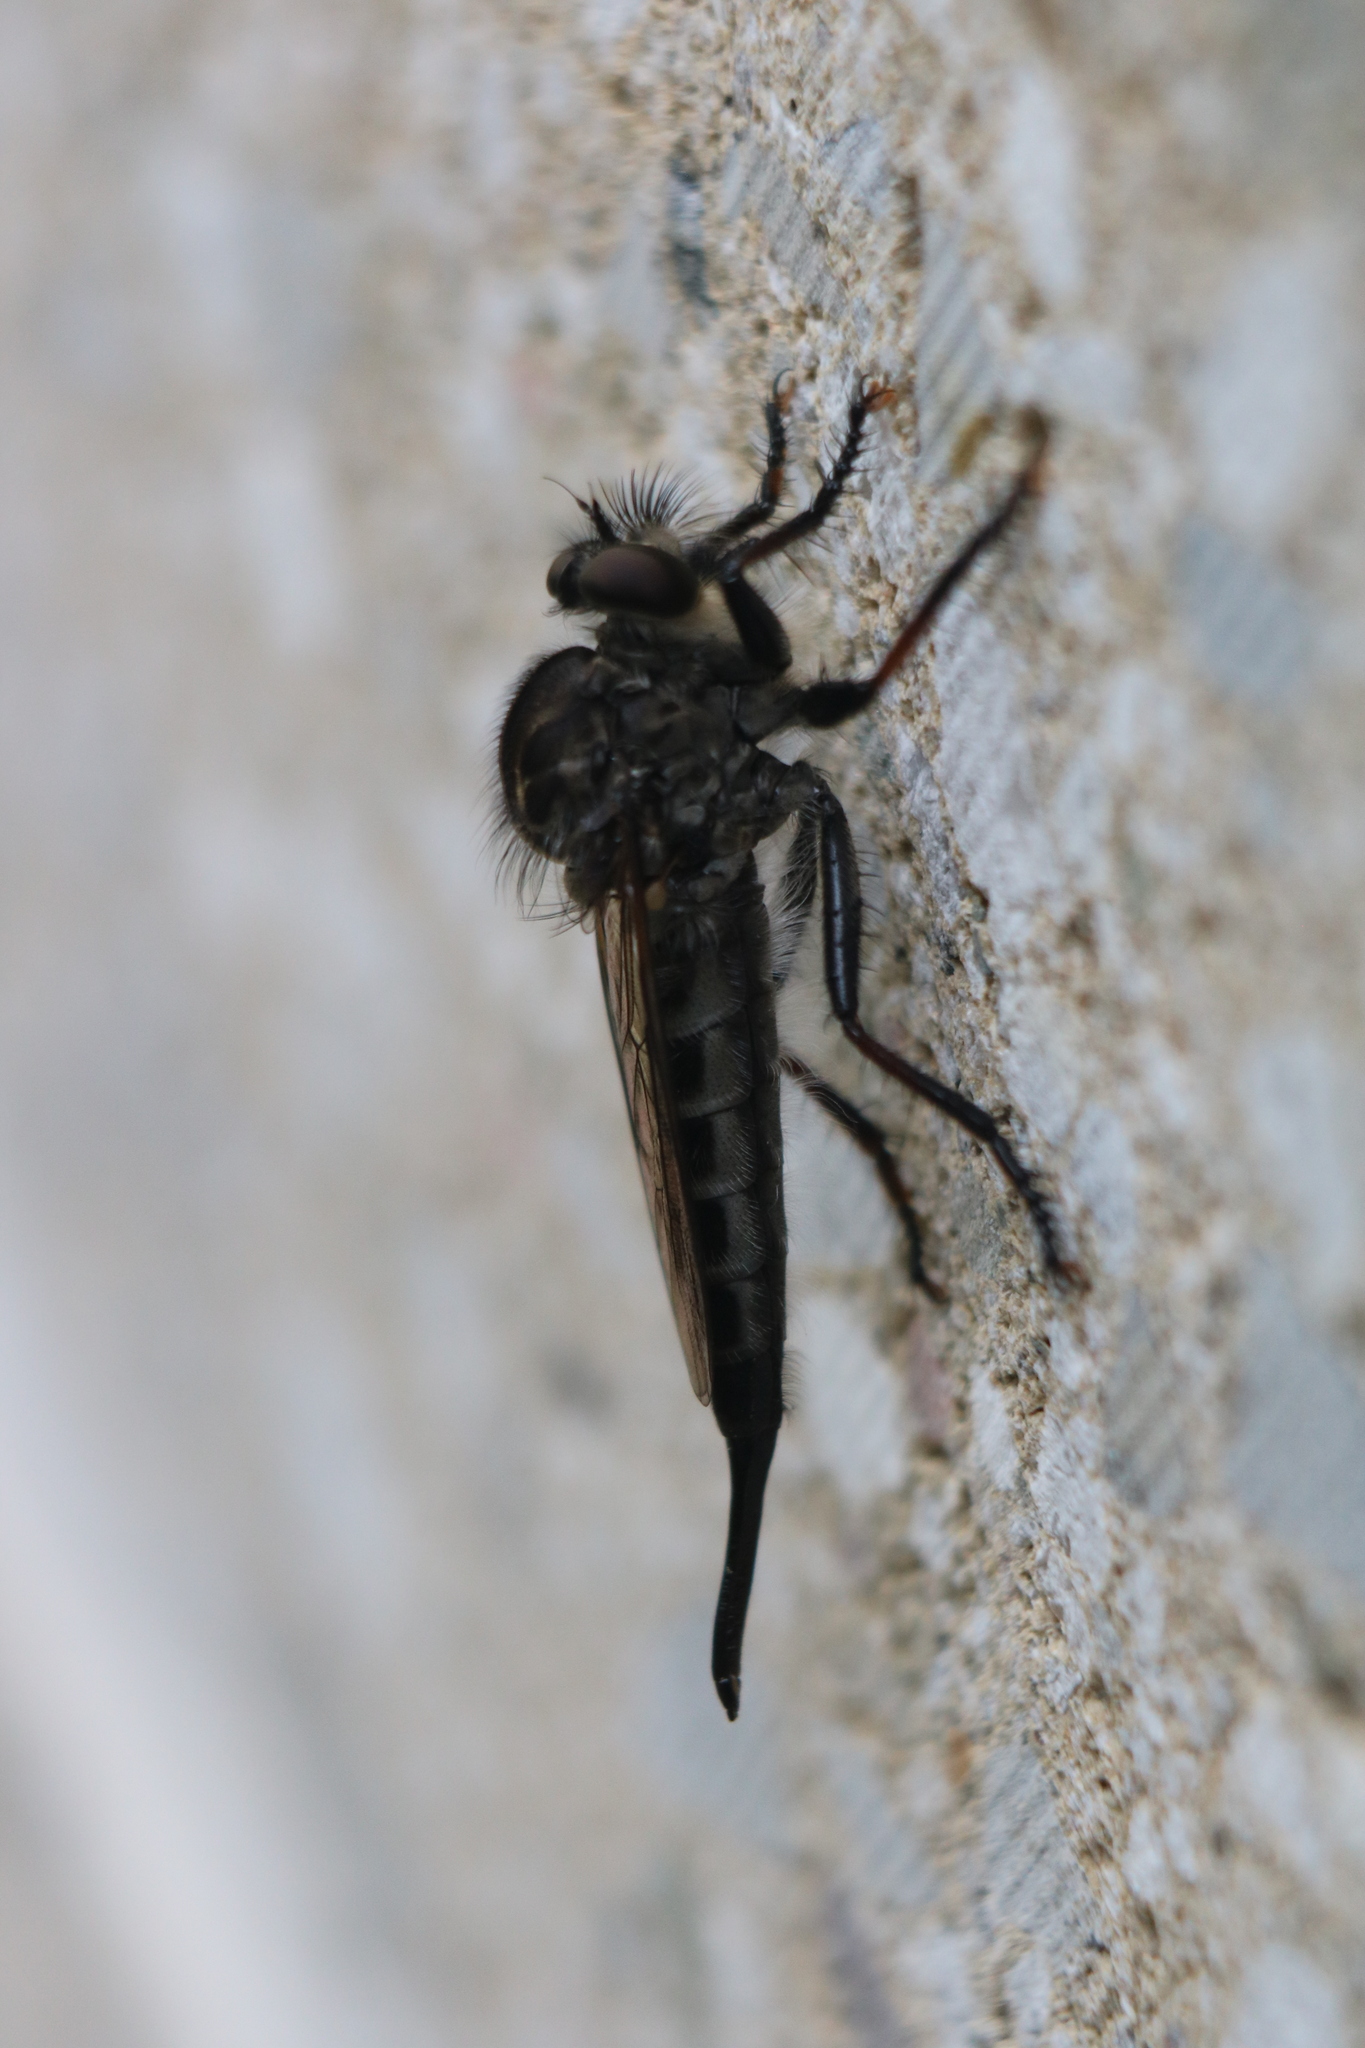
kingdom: Animalia
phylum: Arthropoda
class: Insecta
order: Diptera
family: Asilidae
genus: Efferia
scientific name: Efferia aestuans
